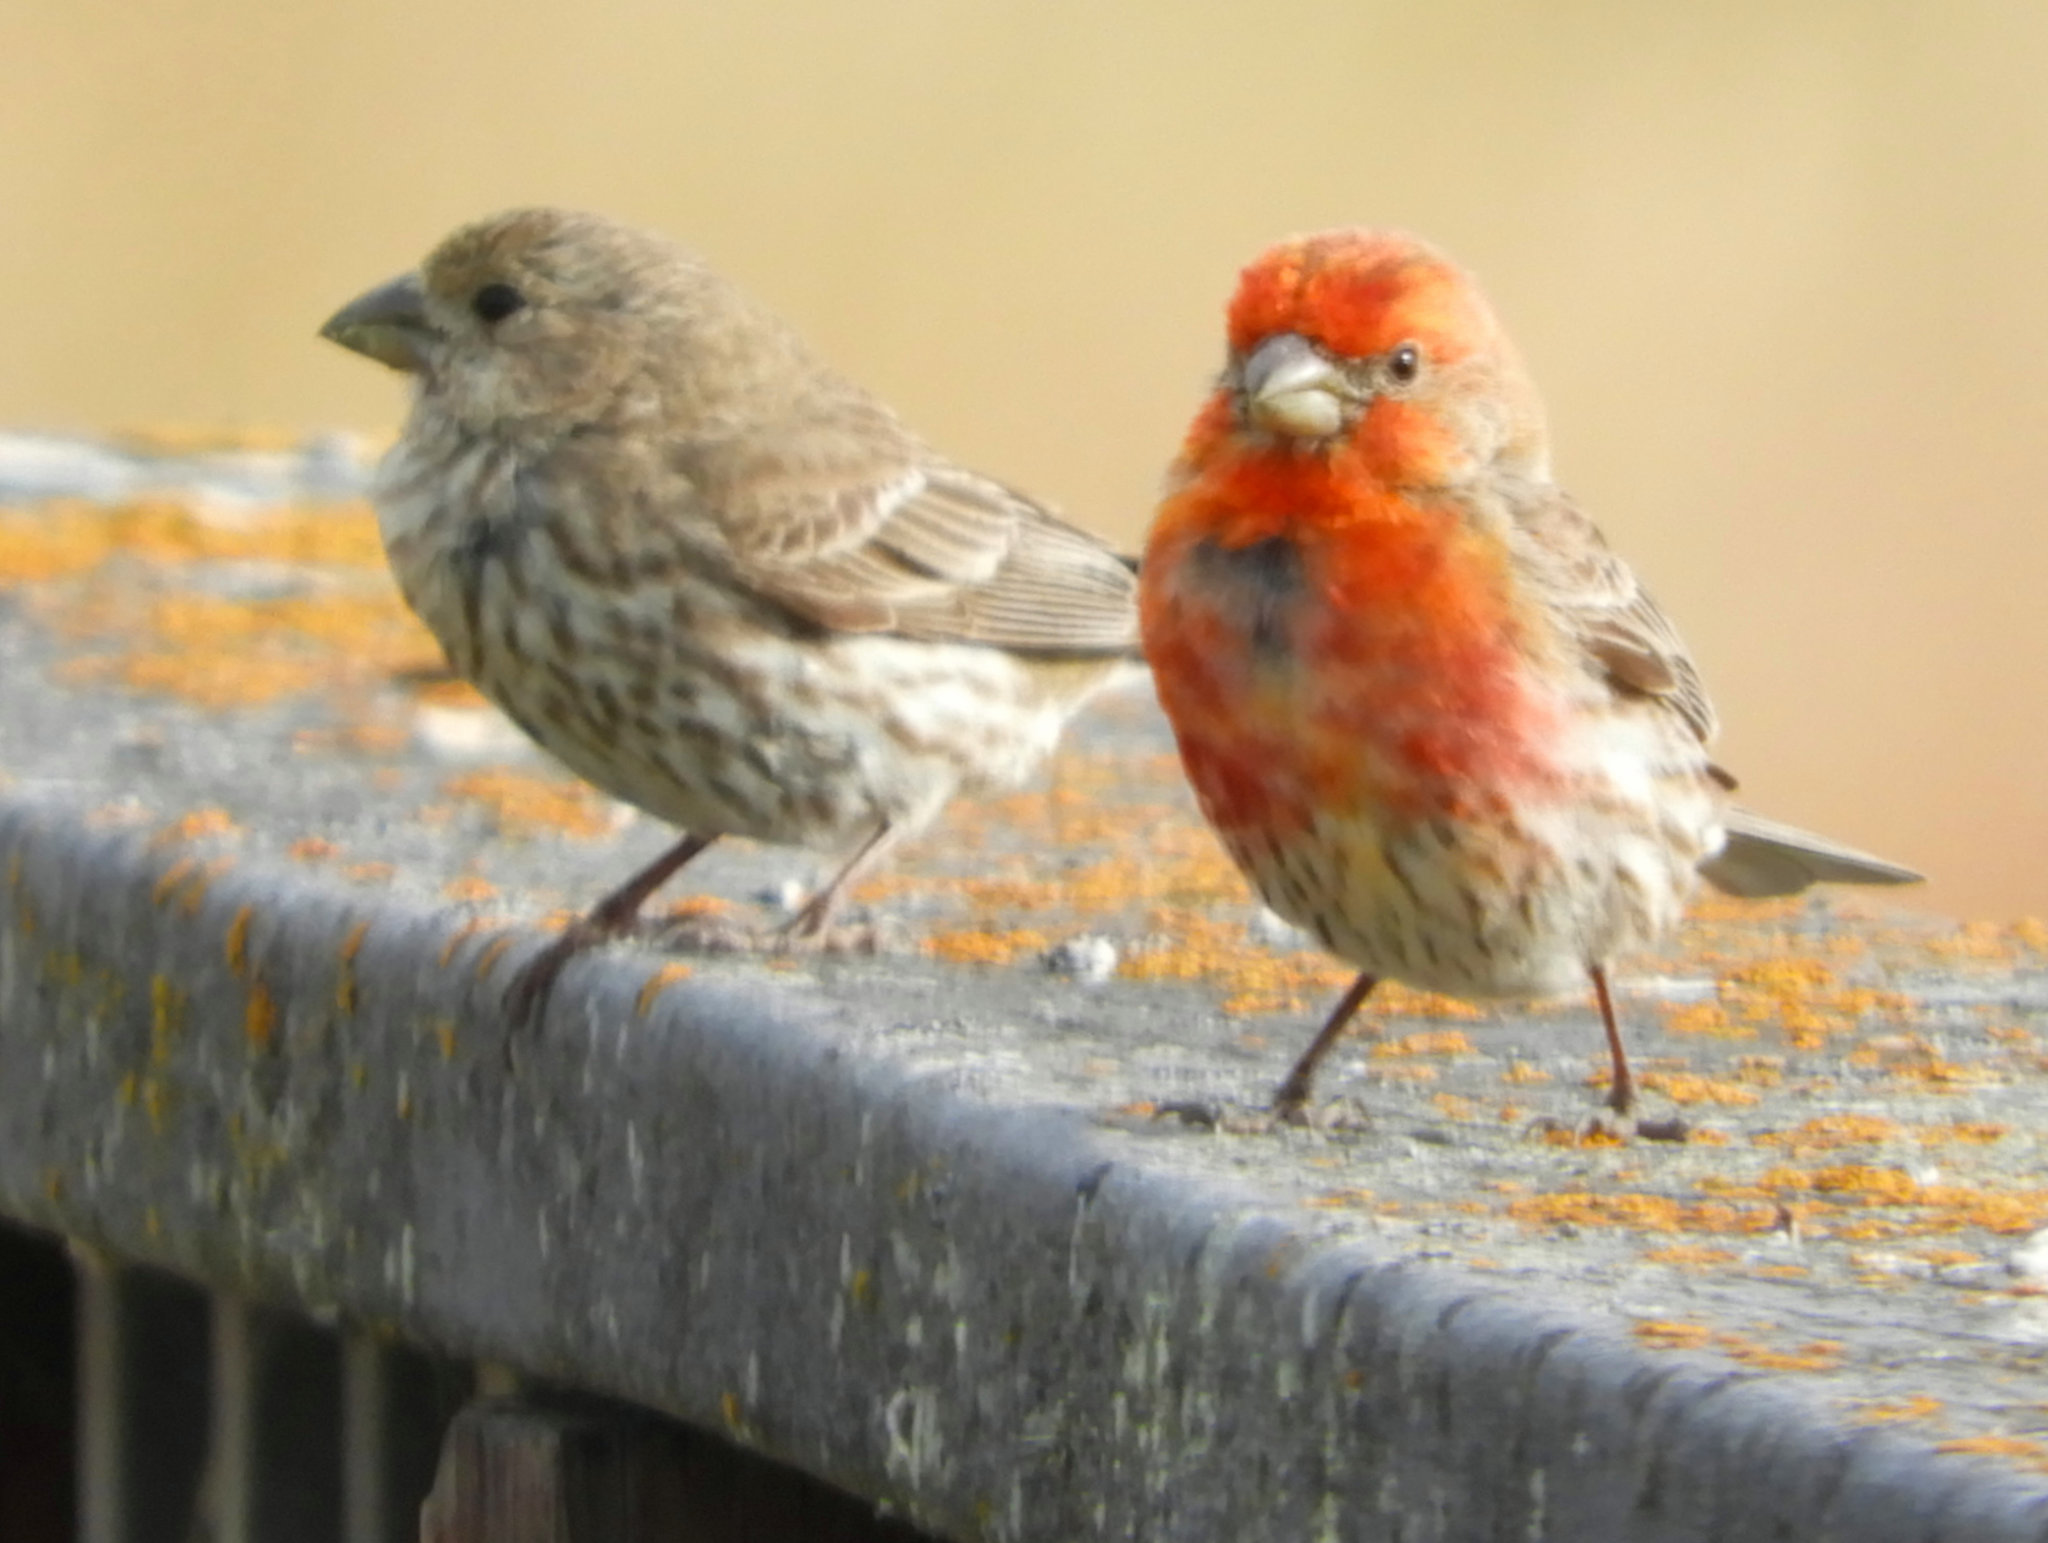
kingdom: Animalia
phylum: Chordata
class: Aves
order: Passeriformes
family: Fringillidae
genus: Haemorhous
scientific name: Haemorhous mexicanus
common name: House finch
